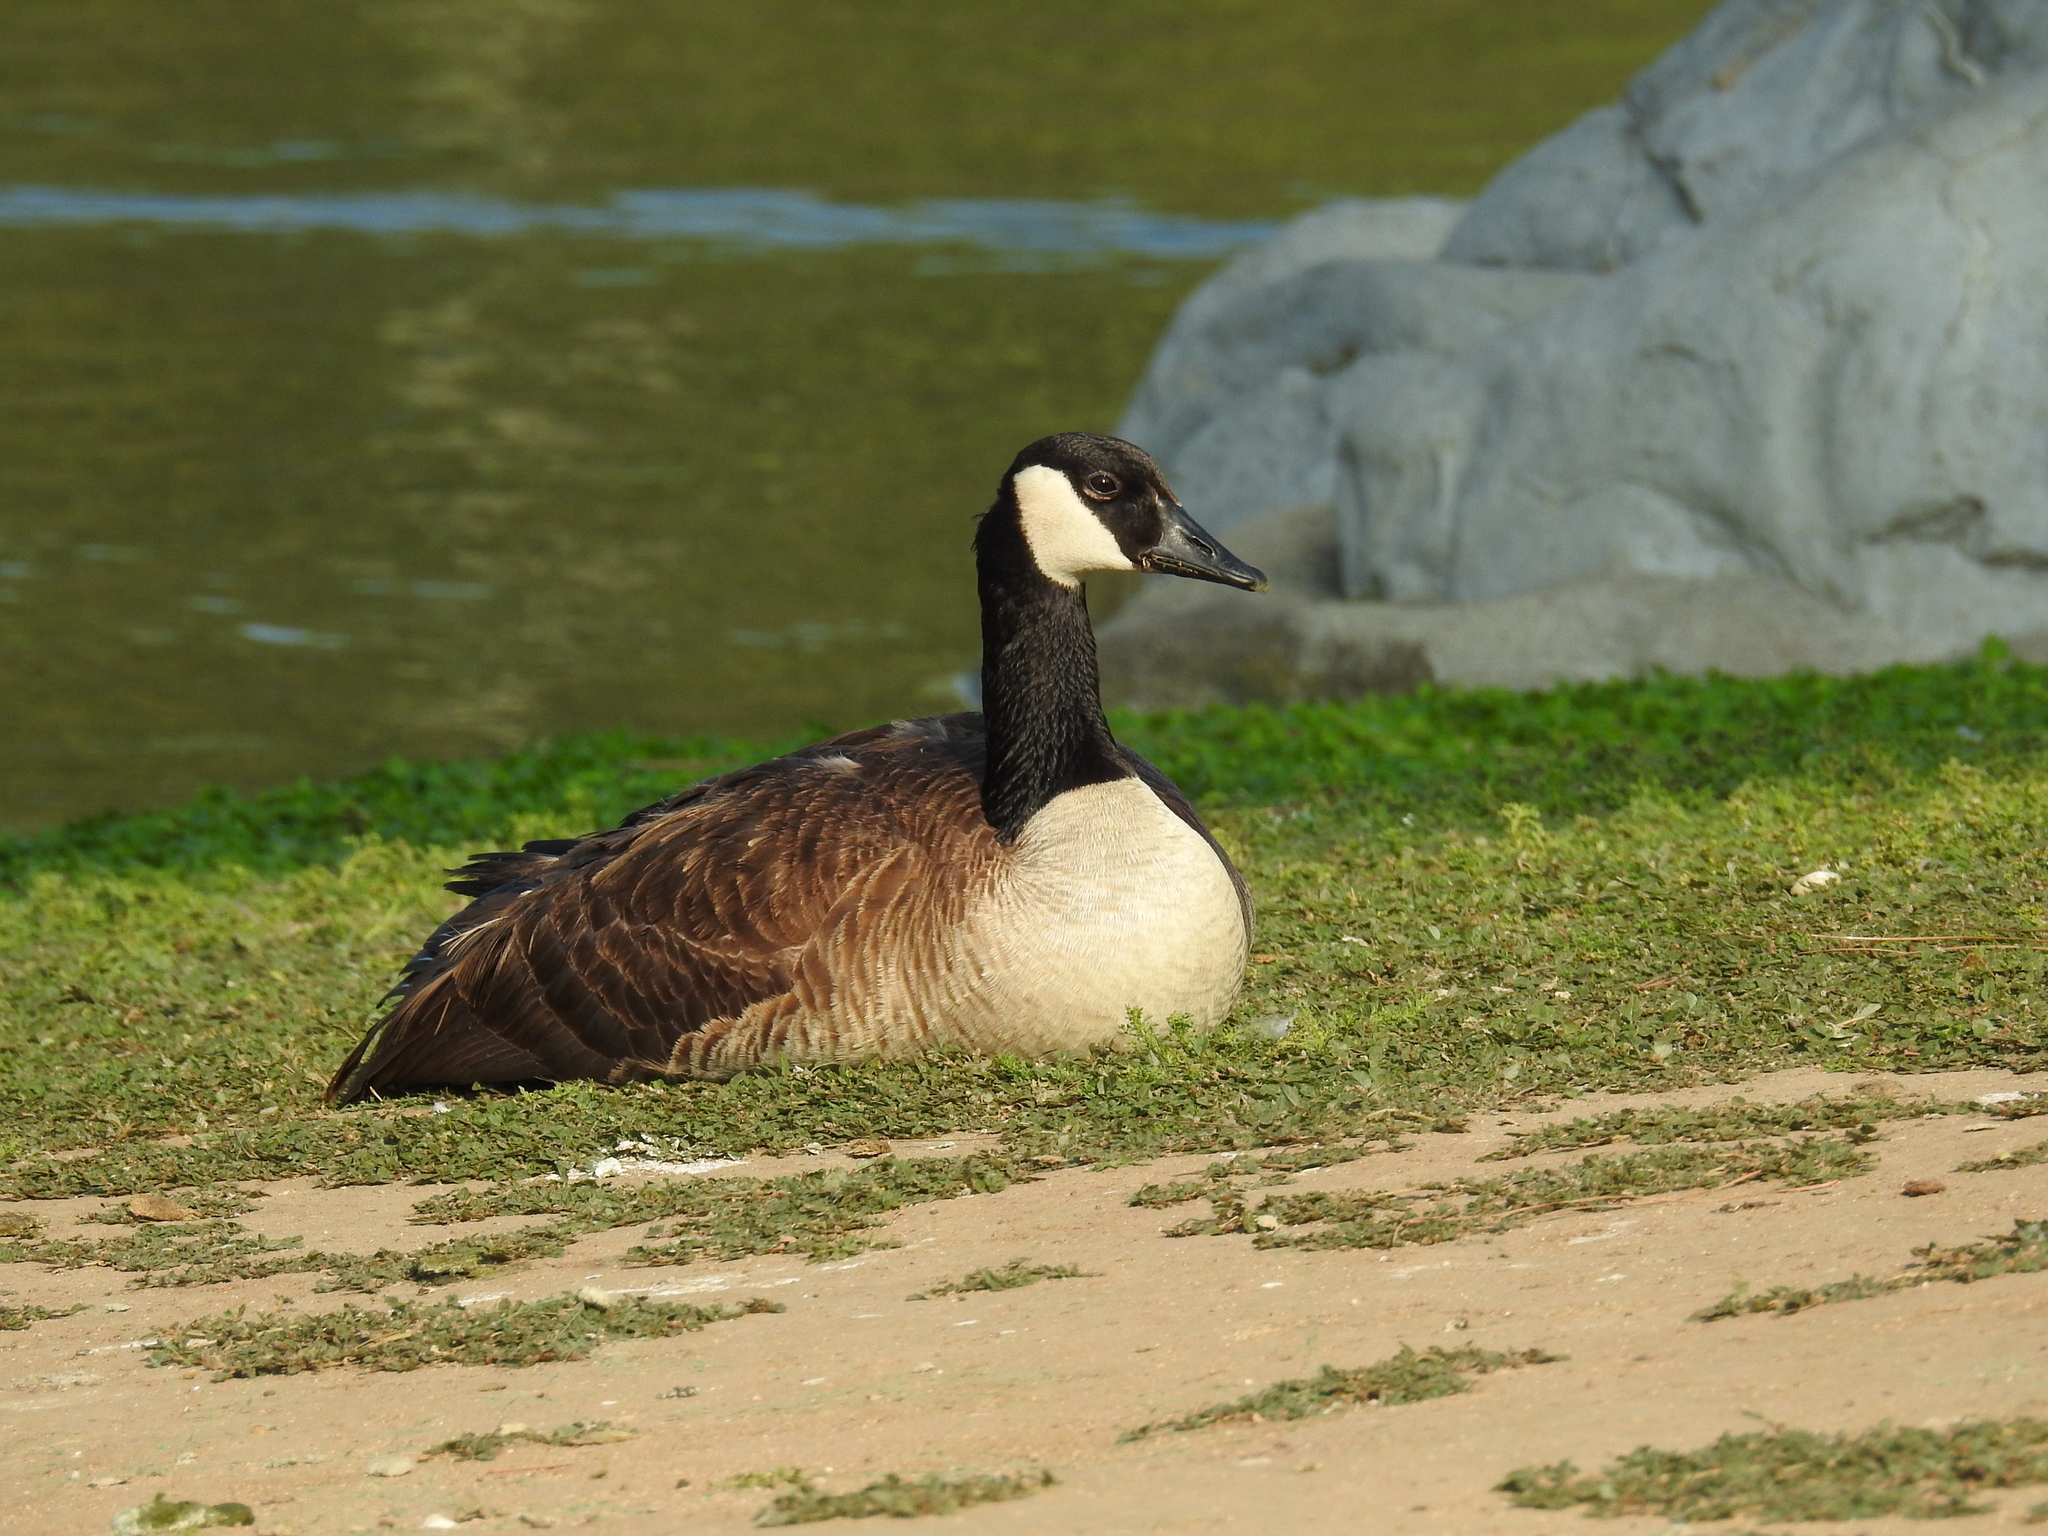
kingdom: Animalia
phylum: Chordata
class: Aves
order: Anseriformes
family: Anatidae
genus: Branta
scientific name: Branta canadensis
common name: Canada goose
